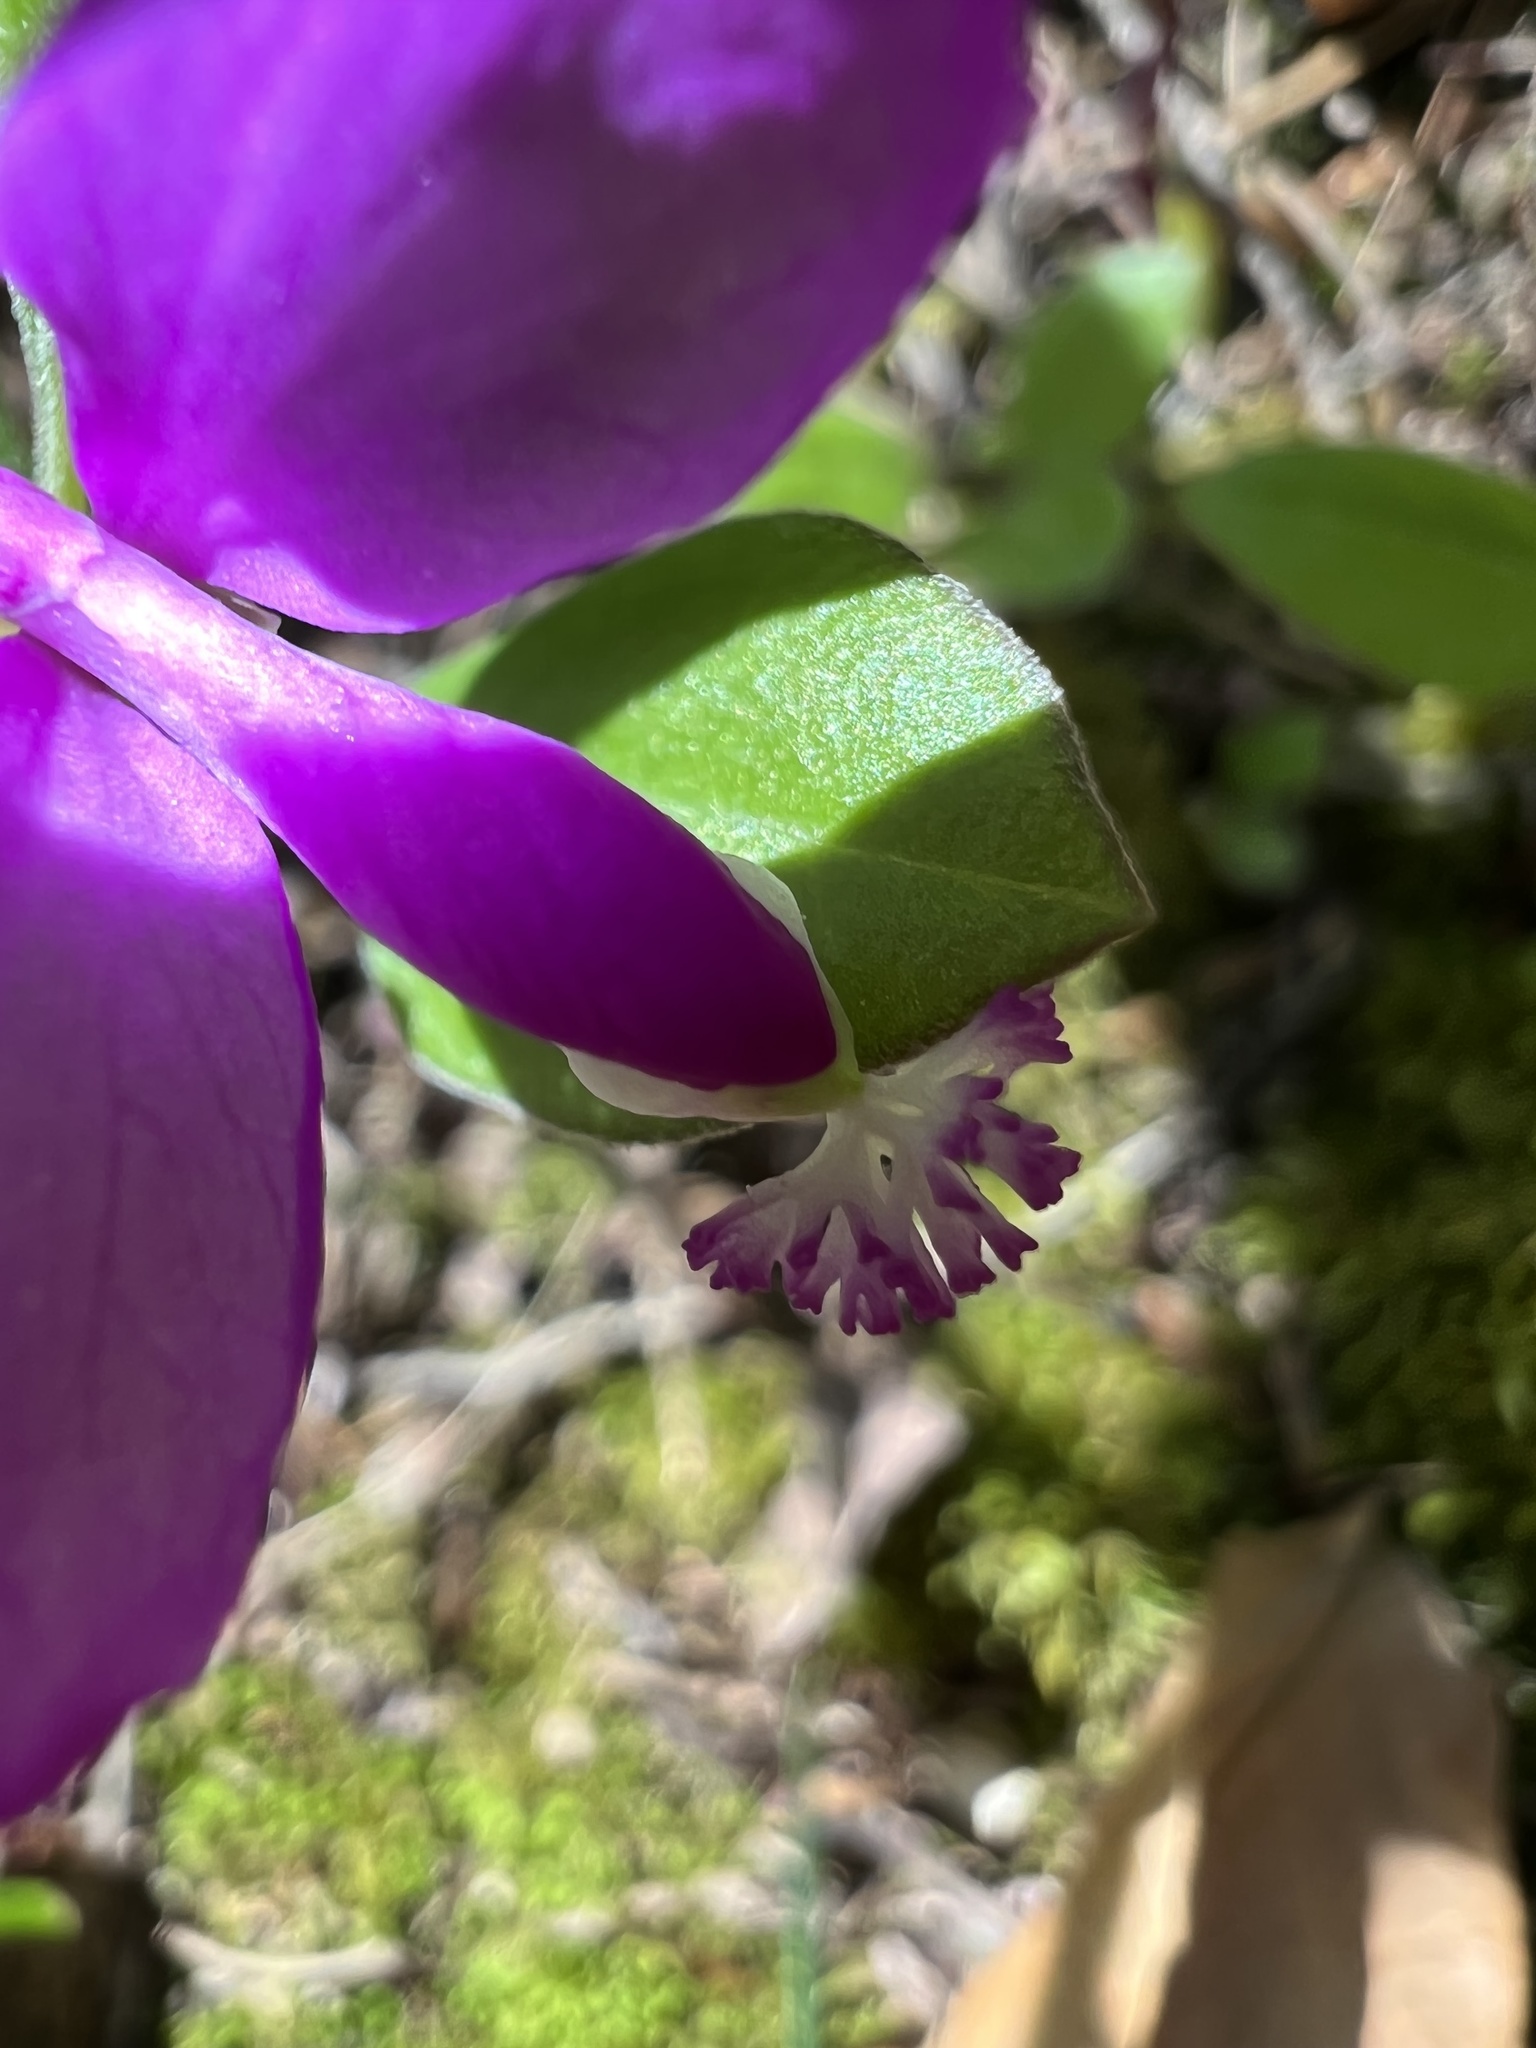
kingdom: Plantae
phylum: Tracheophyta
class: Magnoliopsida
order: Fabales
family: Polygalaceae
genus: Polygaloides
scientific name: Polygaloides paucifolia
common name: Bird-on-the-wing
